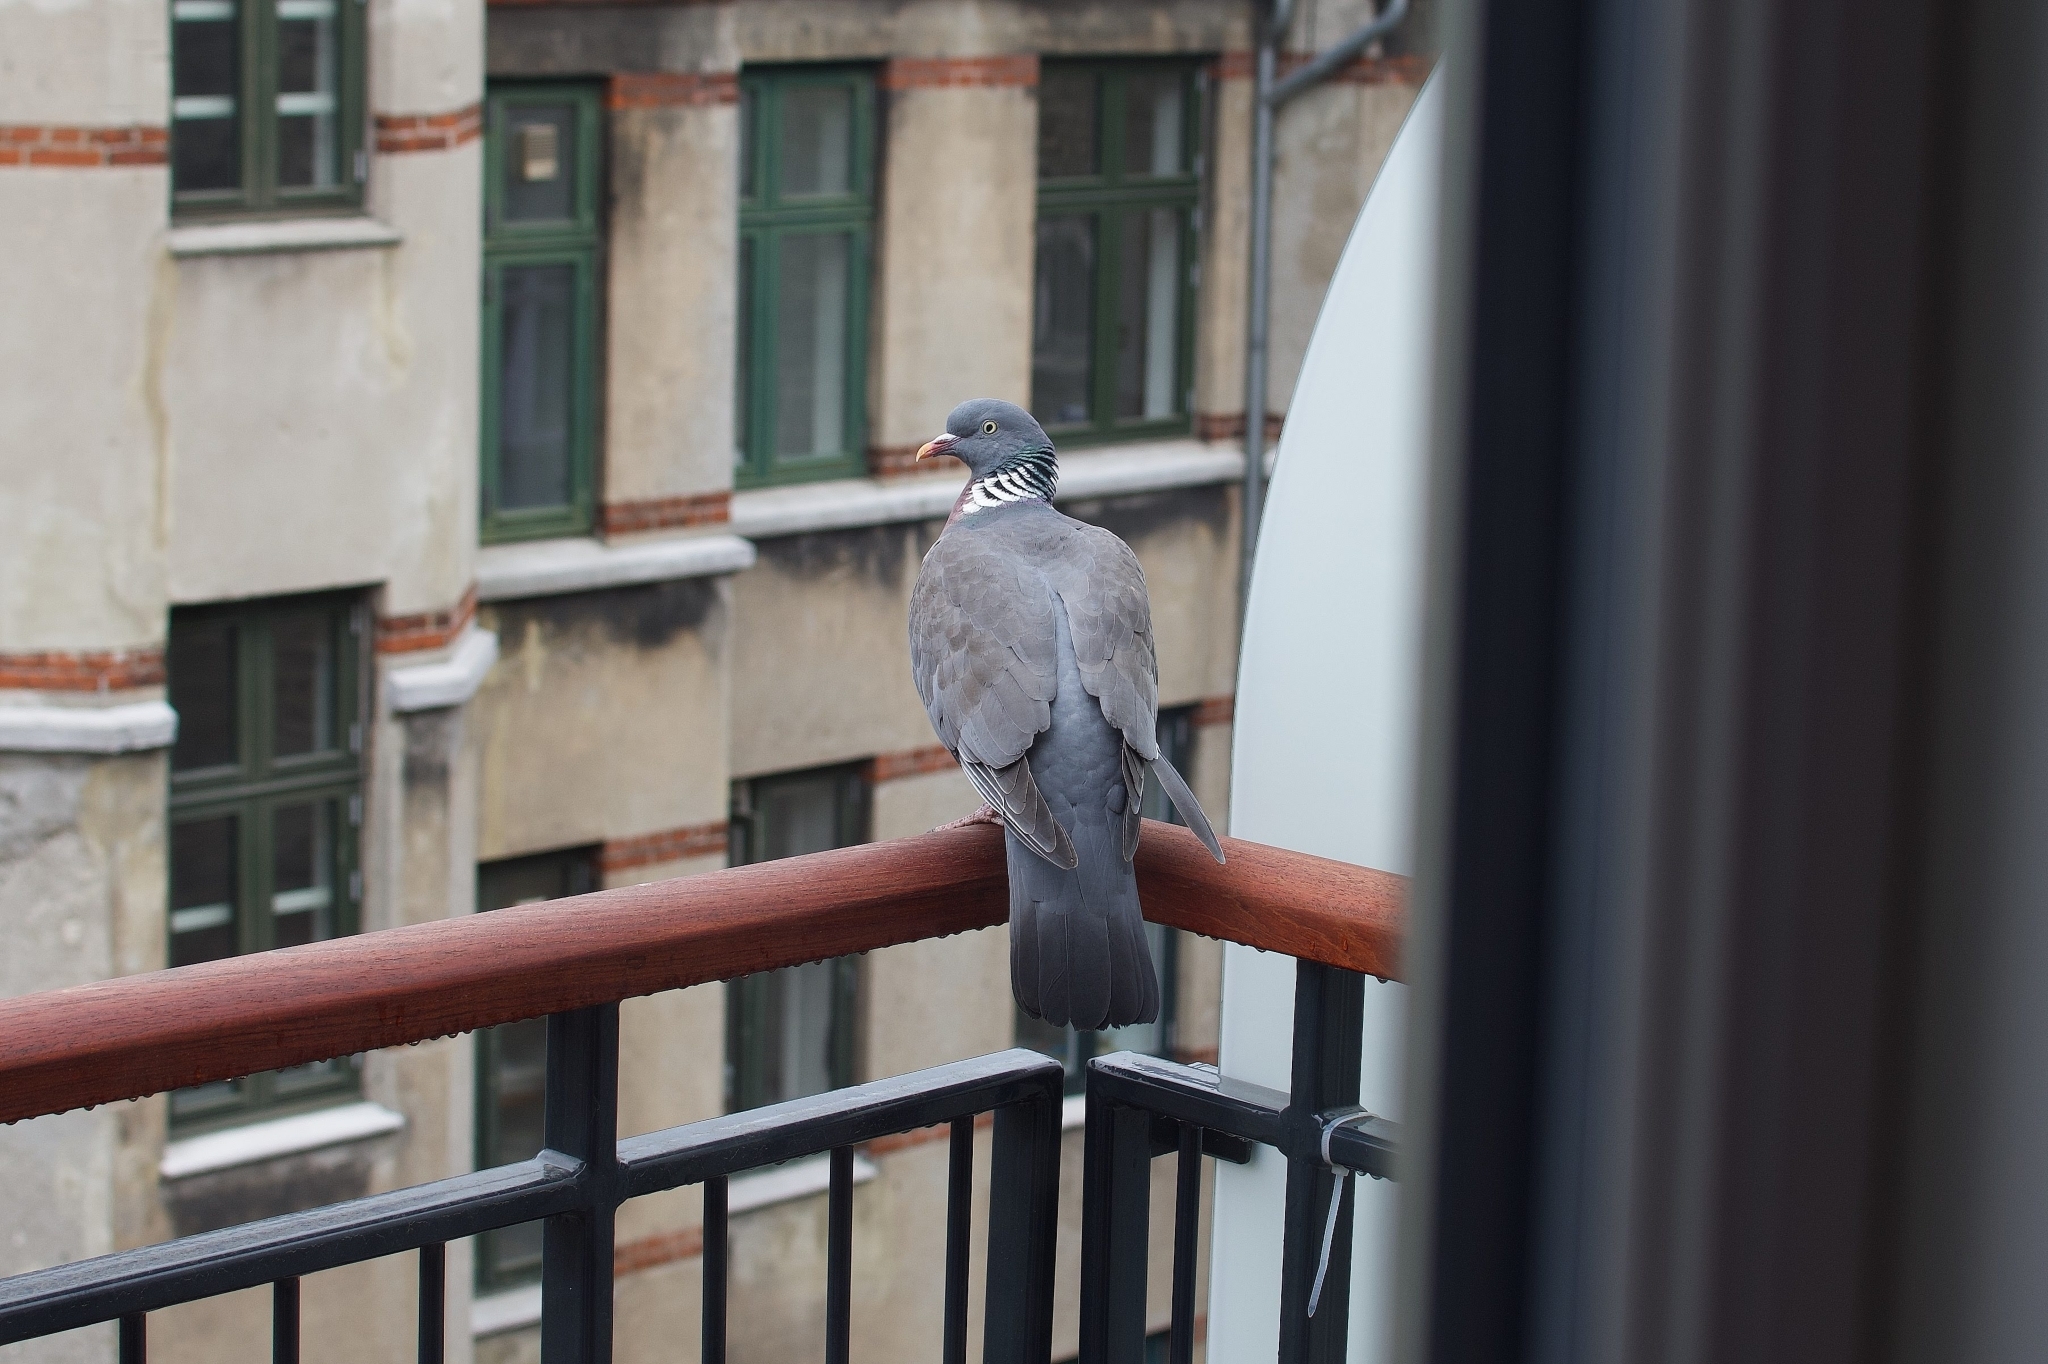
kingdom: Animalia
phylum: Chordata
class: Aves
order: Columbiformes
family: Columbidae
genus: Columba
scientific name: Columba palumbus
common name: Common wood pigeon
